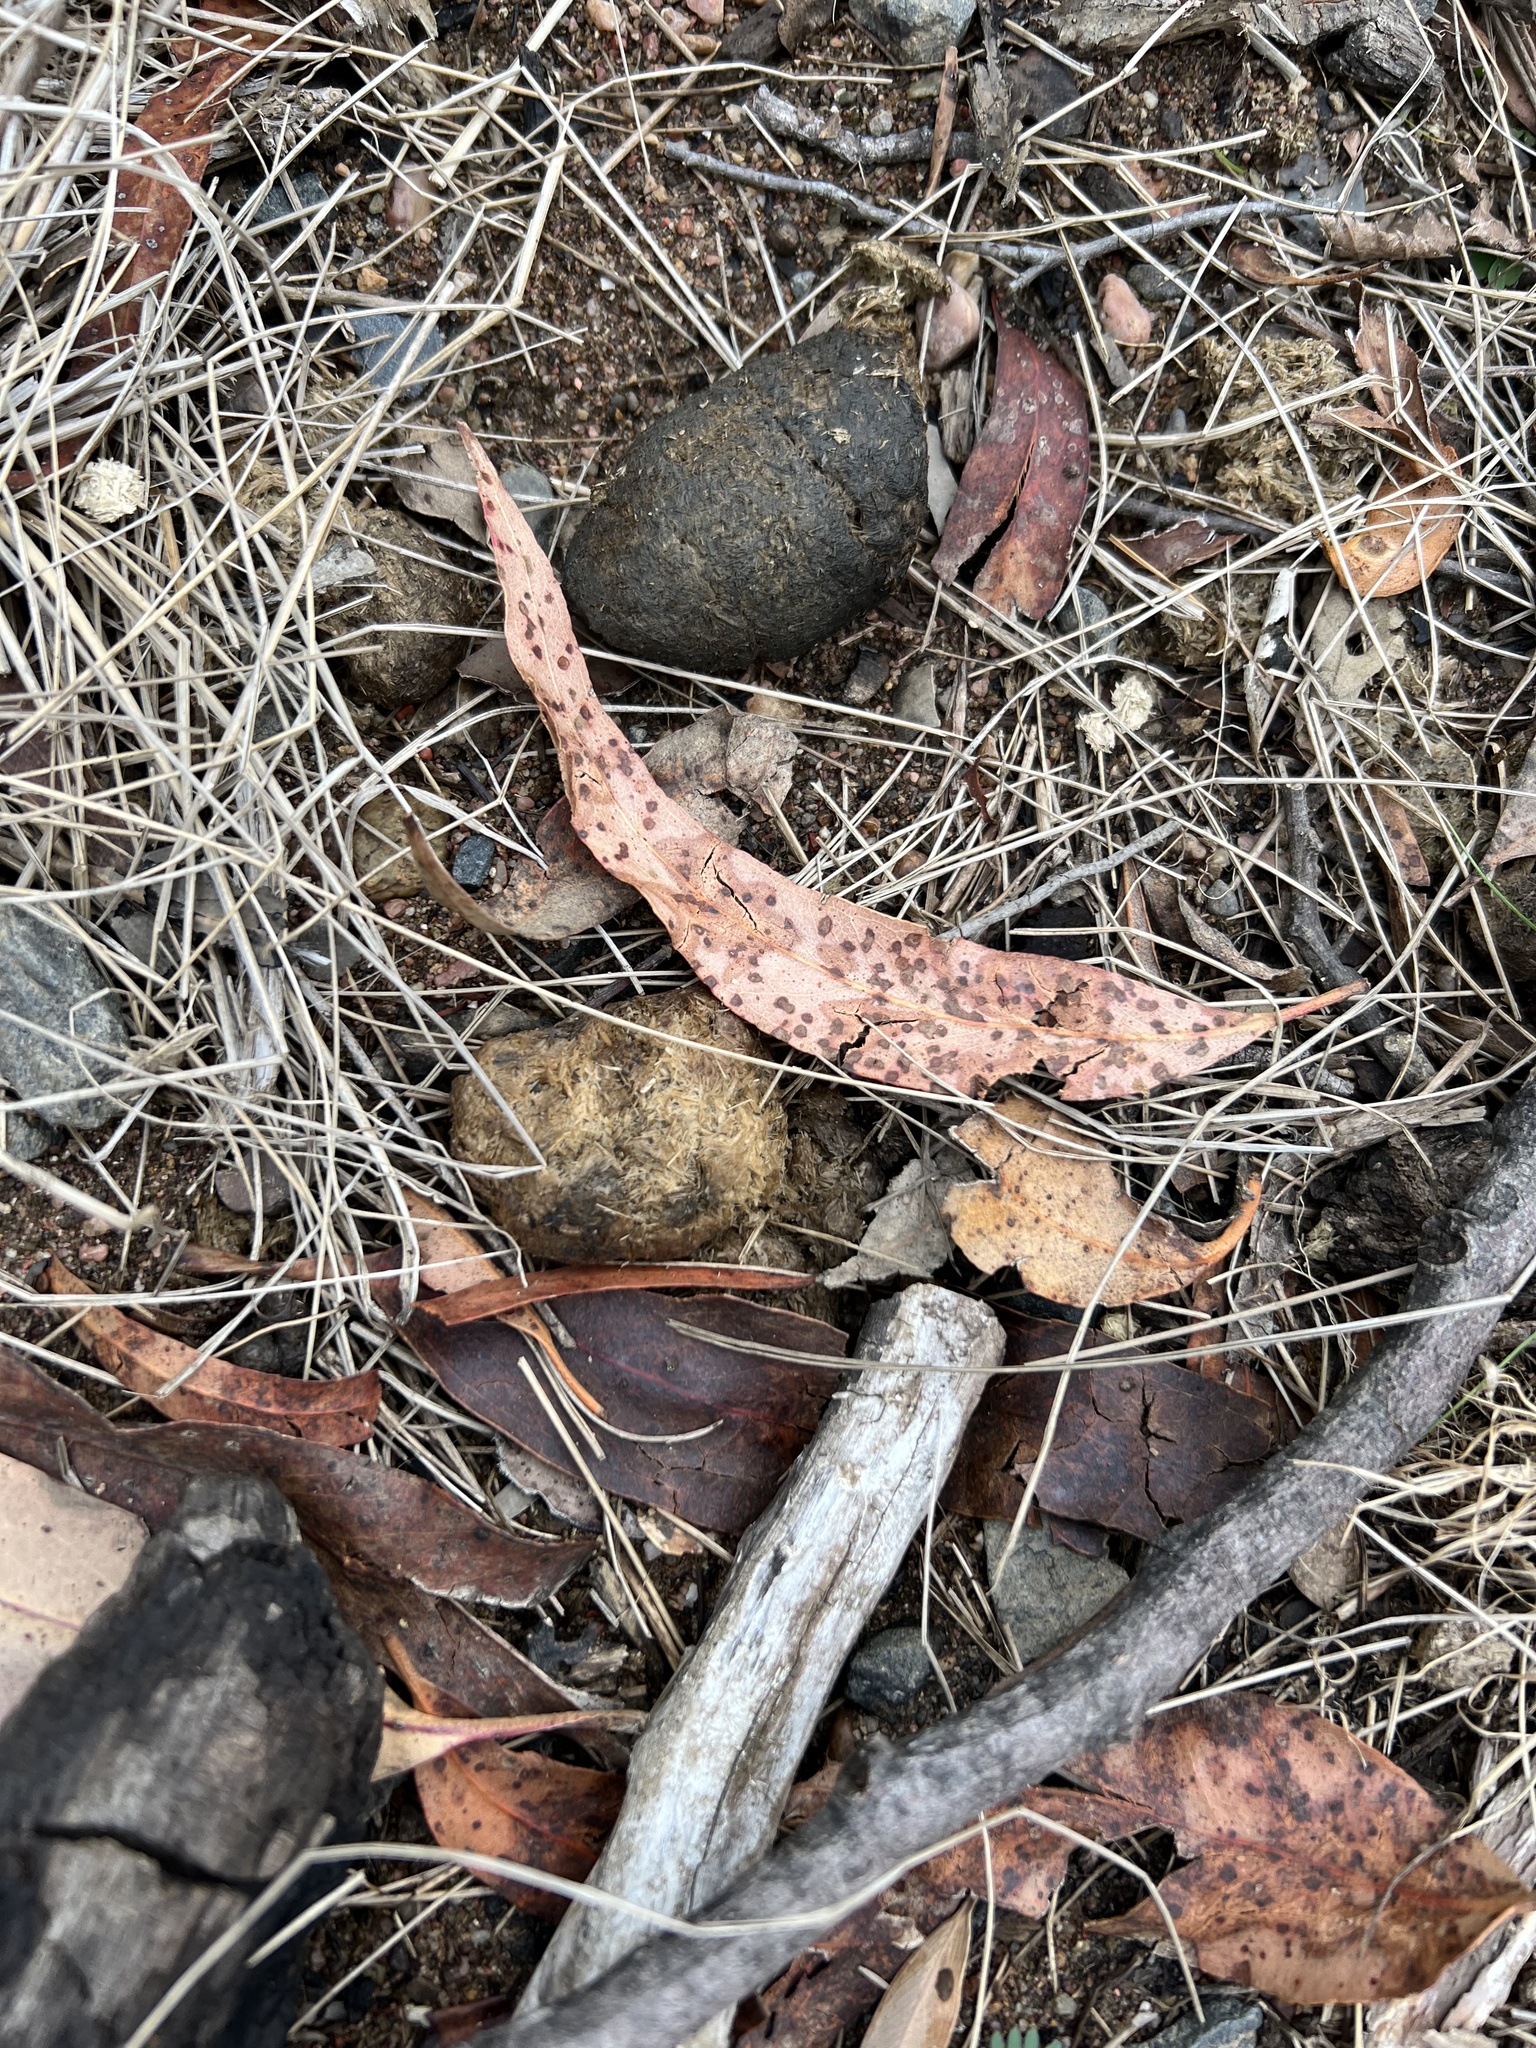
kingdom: Animalia
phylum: Chordata
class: Mammalia
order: Diprotodontia
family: Vombatidae
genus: Vombatus
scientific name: Vombatus ursinus
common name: Common wombat
